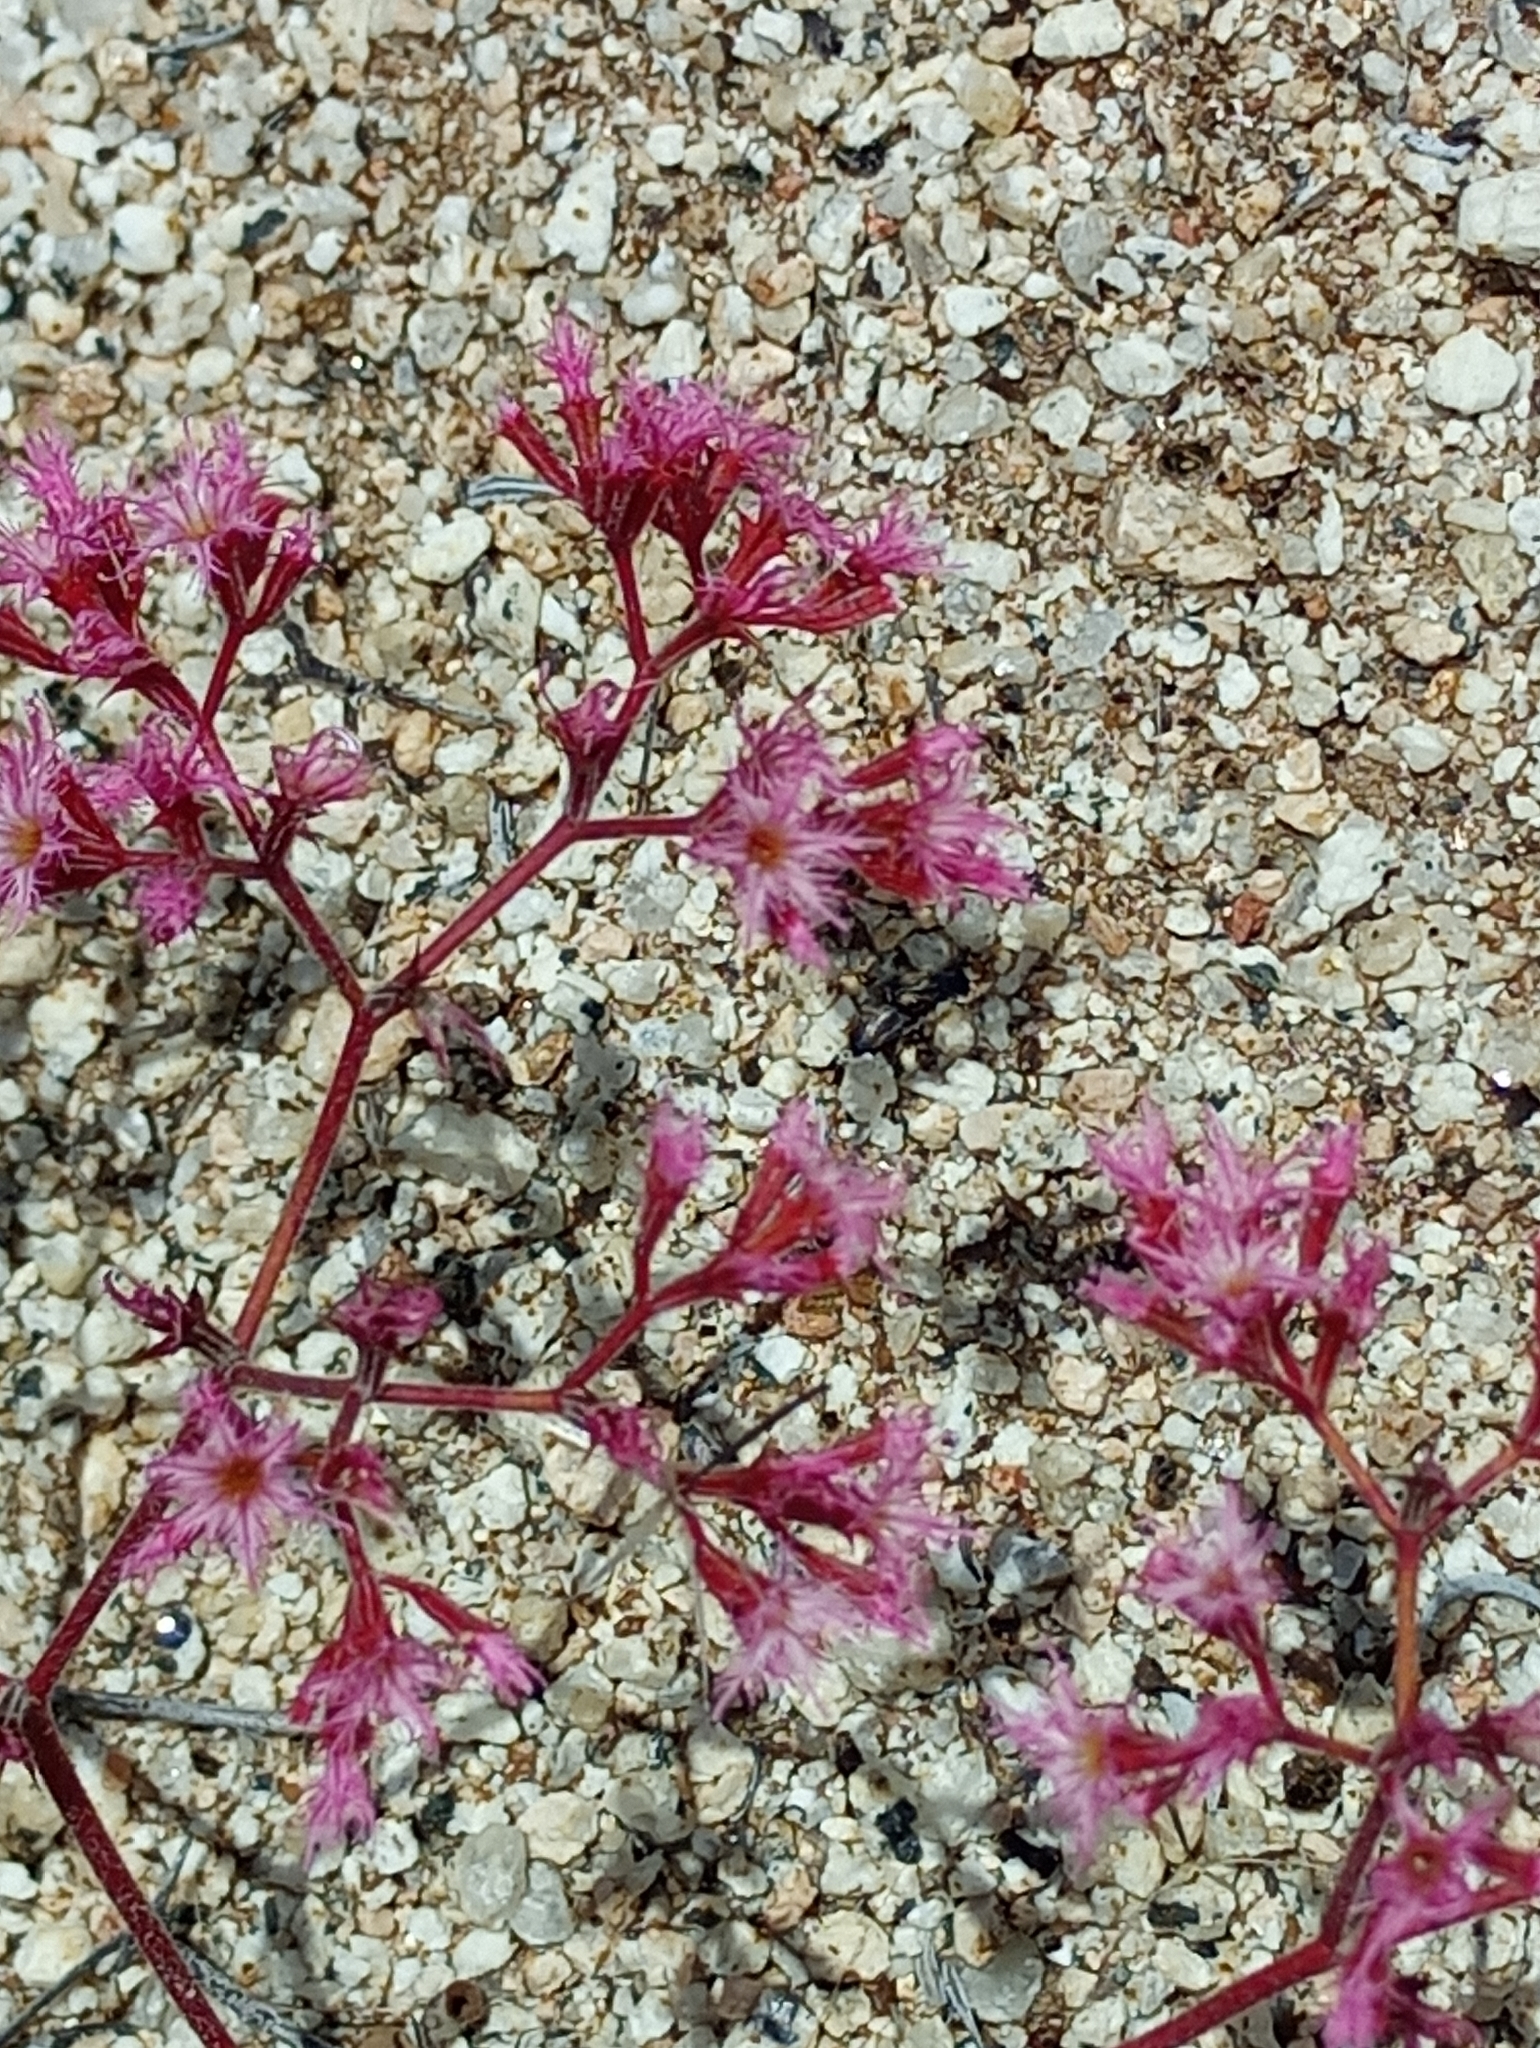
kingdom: Plantae
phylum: Tracheophyta
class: Magnoliopsida
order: Caryophyllales
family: Polygonaceae
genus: Chorizanthe
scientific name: Chorizanthe fimbriata
